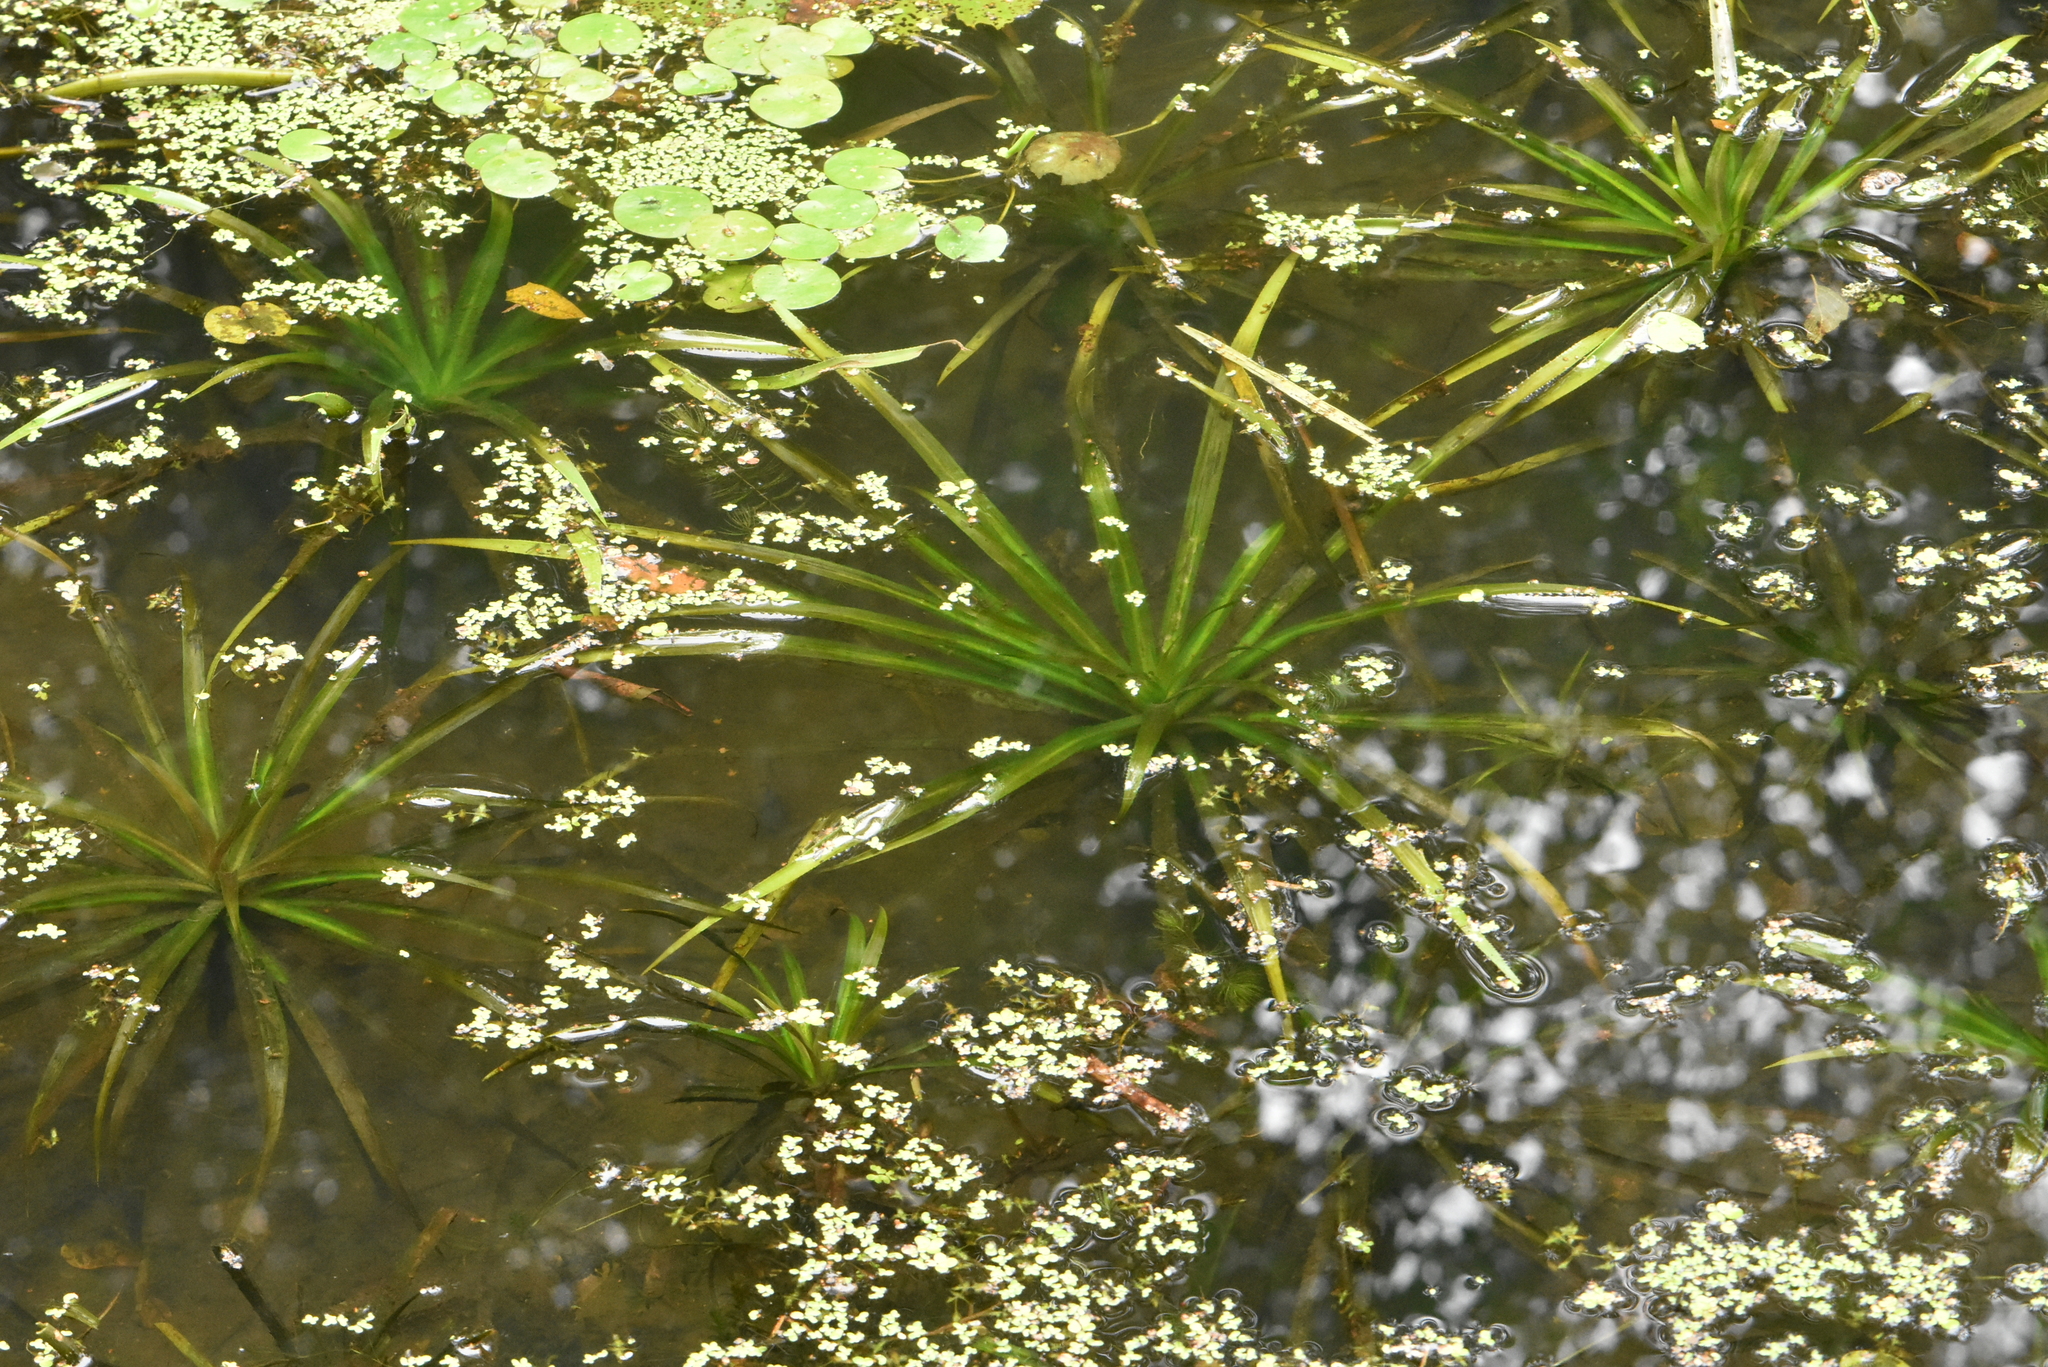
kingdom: Plantae
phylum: Tracheophyta
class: Liliopsida
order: Alismatales
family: Hydrocharitaceae
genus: Stratiotes
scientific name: Stratiotes aloides
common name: Water-soldier
